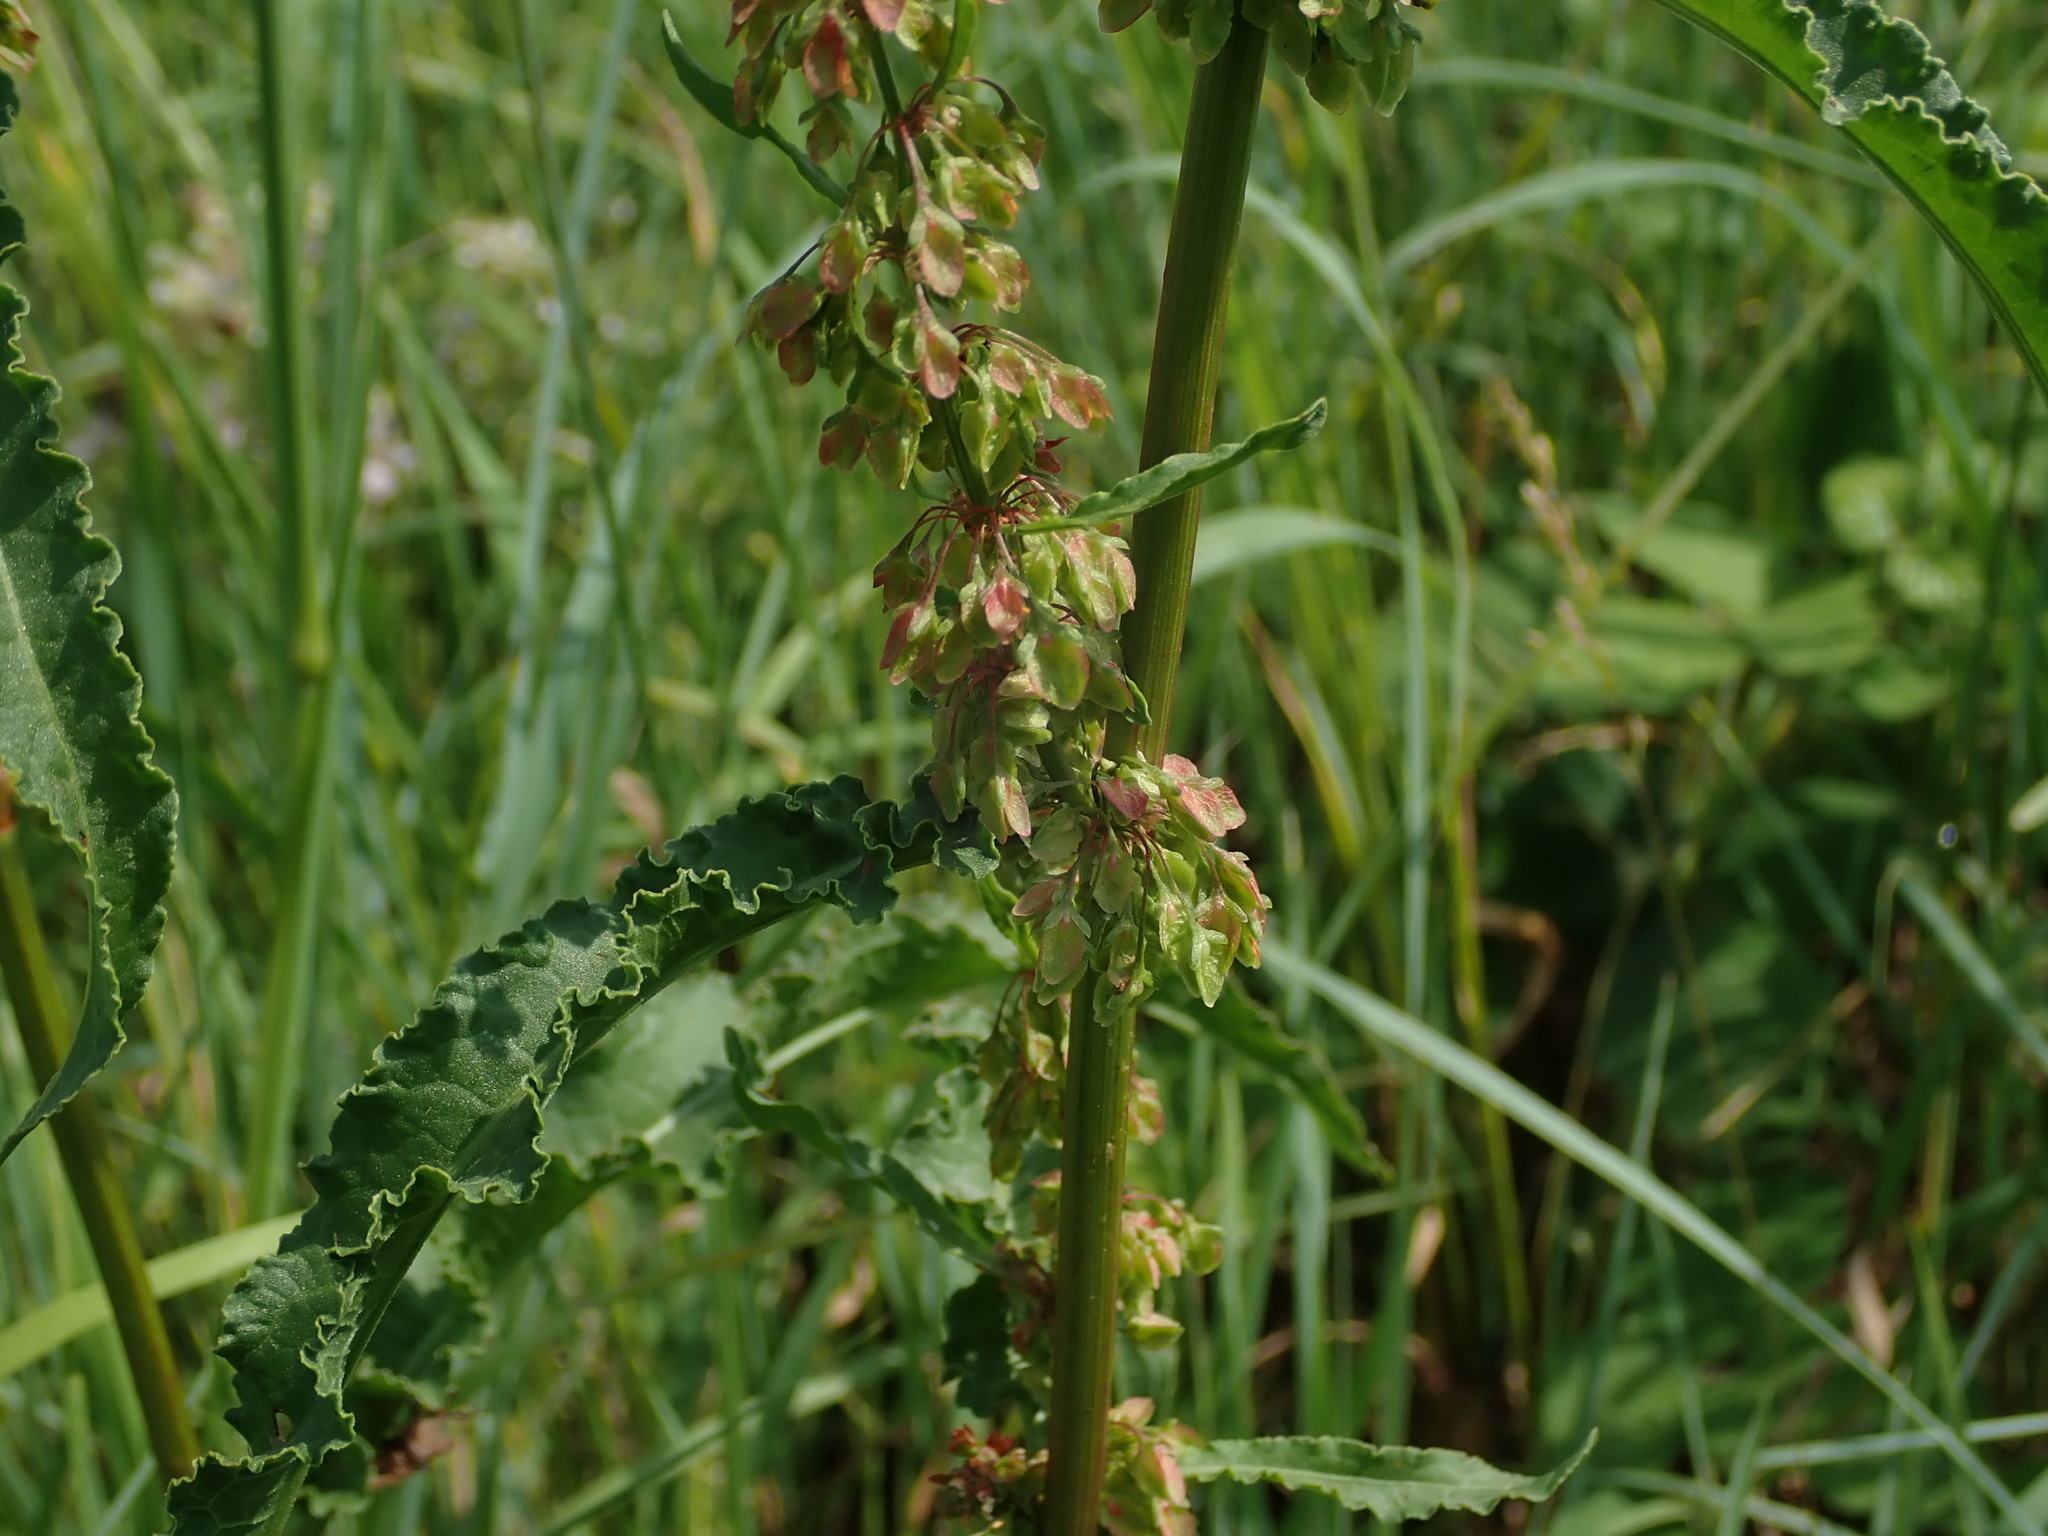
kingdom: Plantae
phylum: Tracheophyta
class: Magnoliopsida
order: Caryophyllales
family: Polygonaceae
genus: Rumex
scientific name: Rumex crispus
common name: Curled dock
